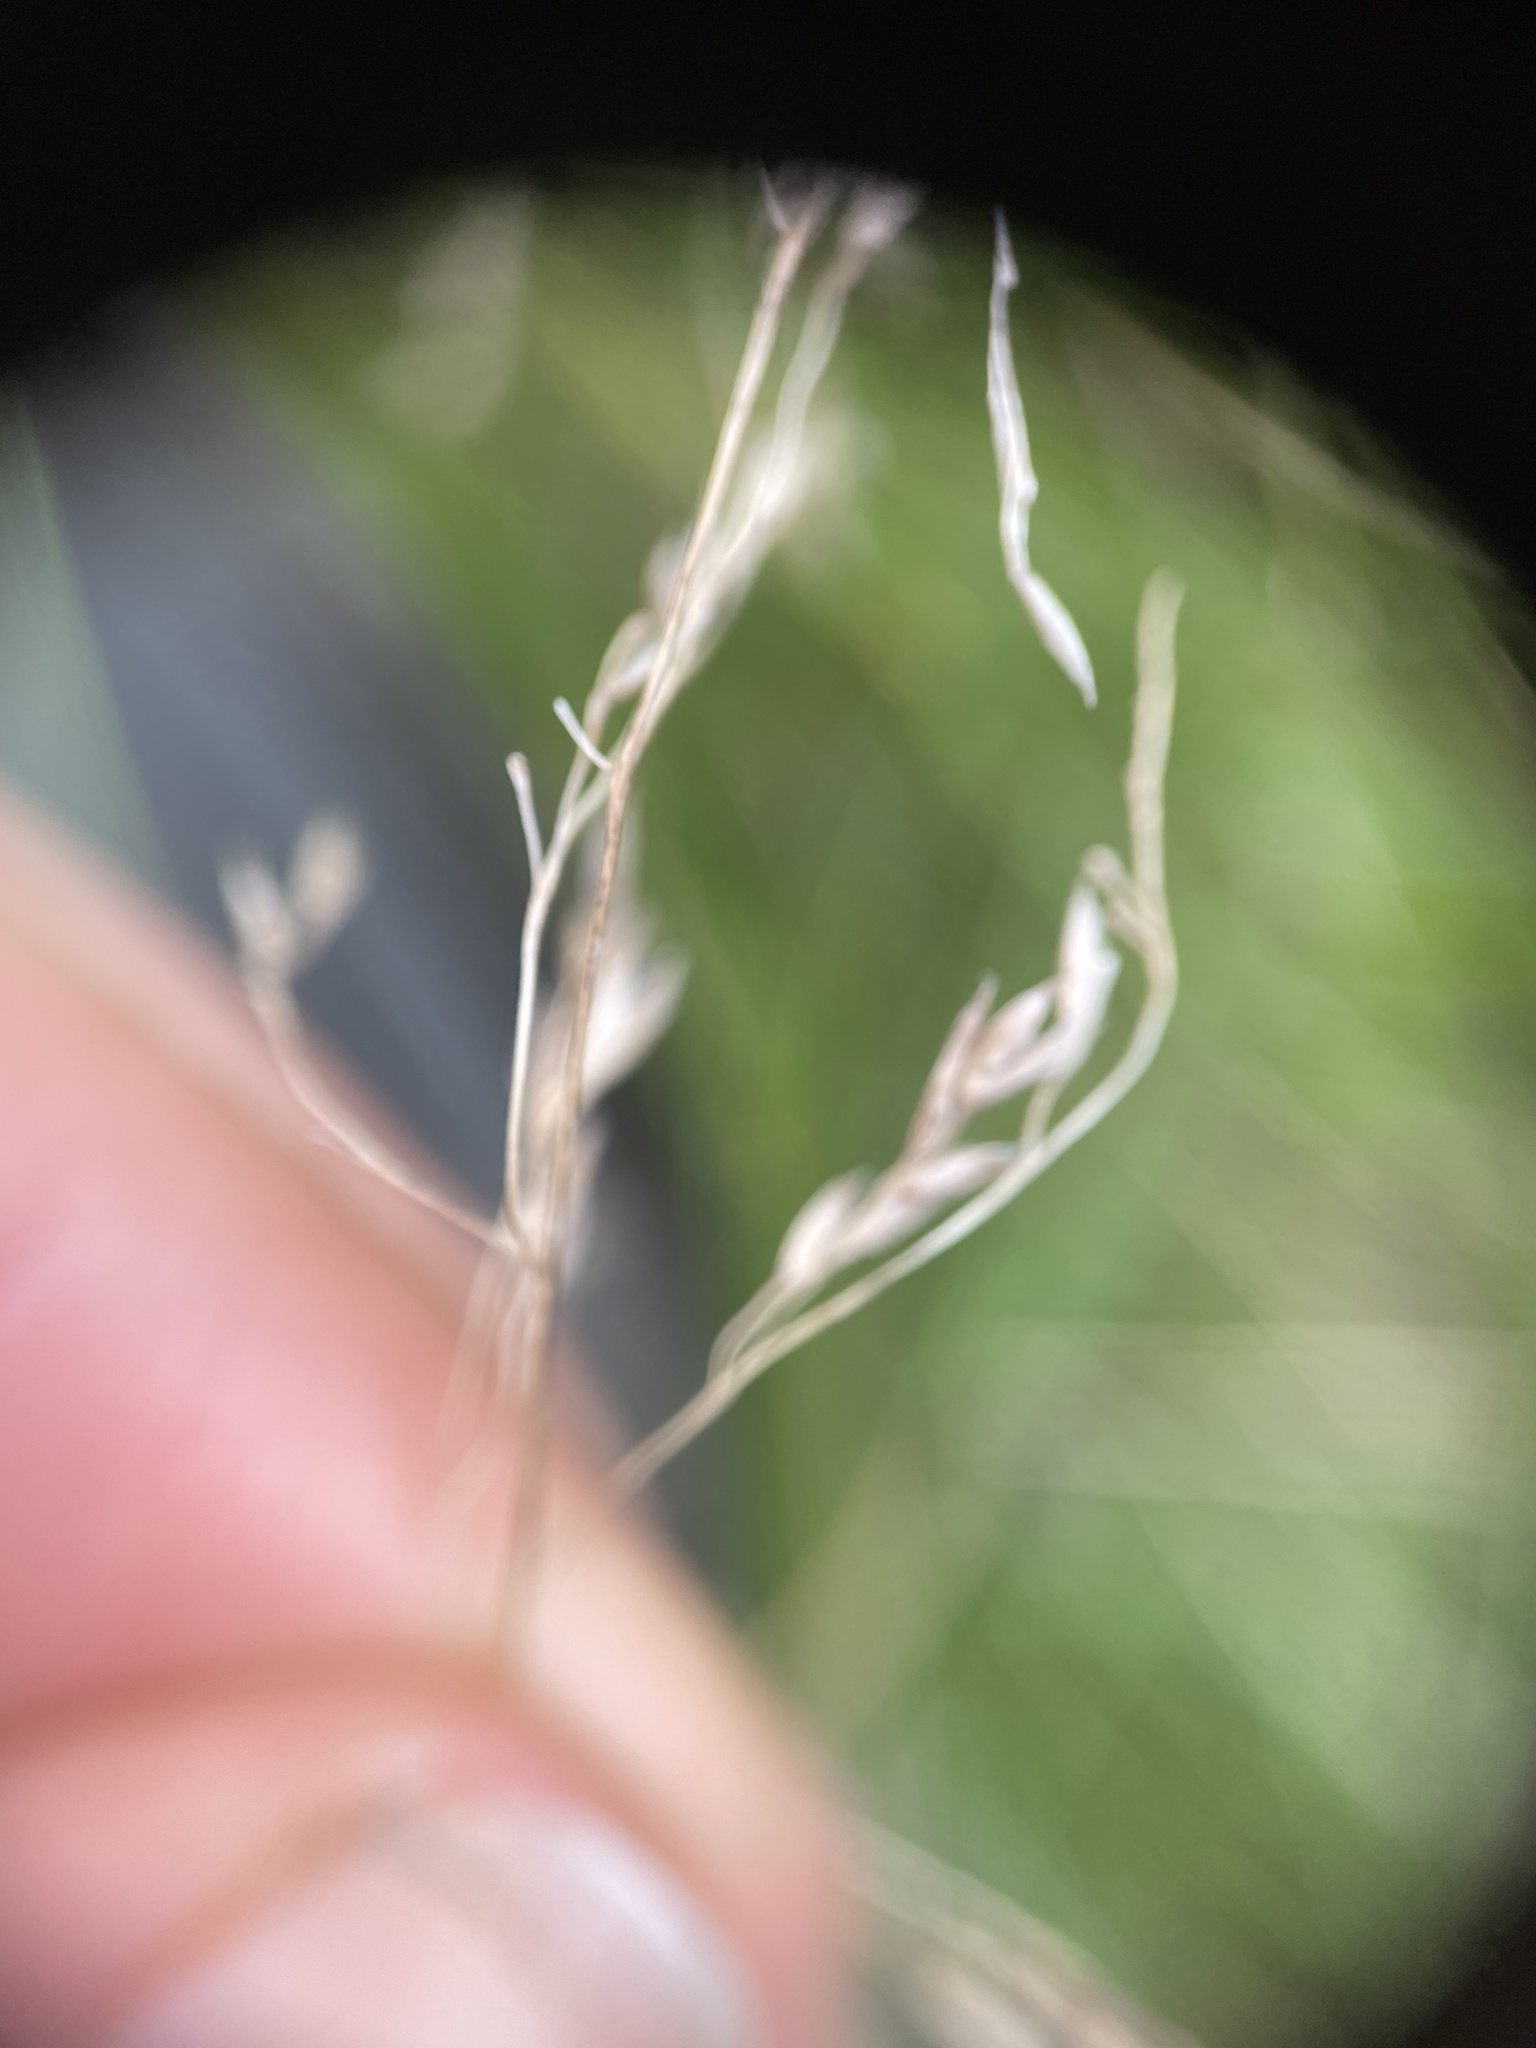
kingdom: Plantae
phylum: Tracheophyta
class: Liliopsida
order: Poales
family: Poaceae
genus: Poa
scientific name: Poa
